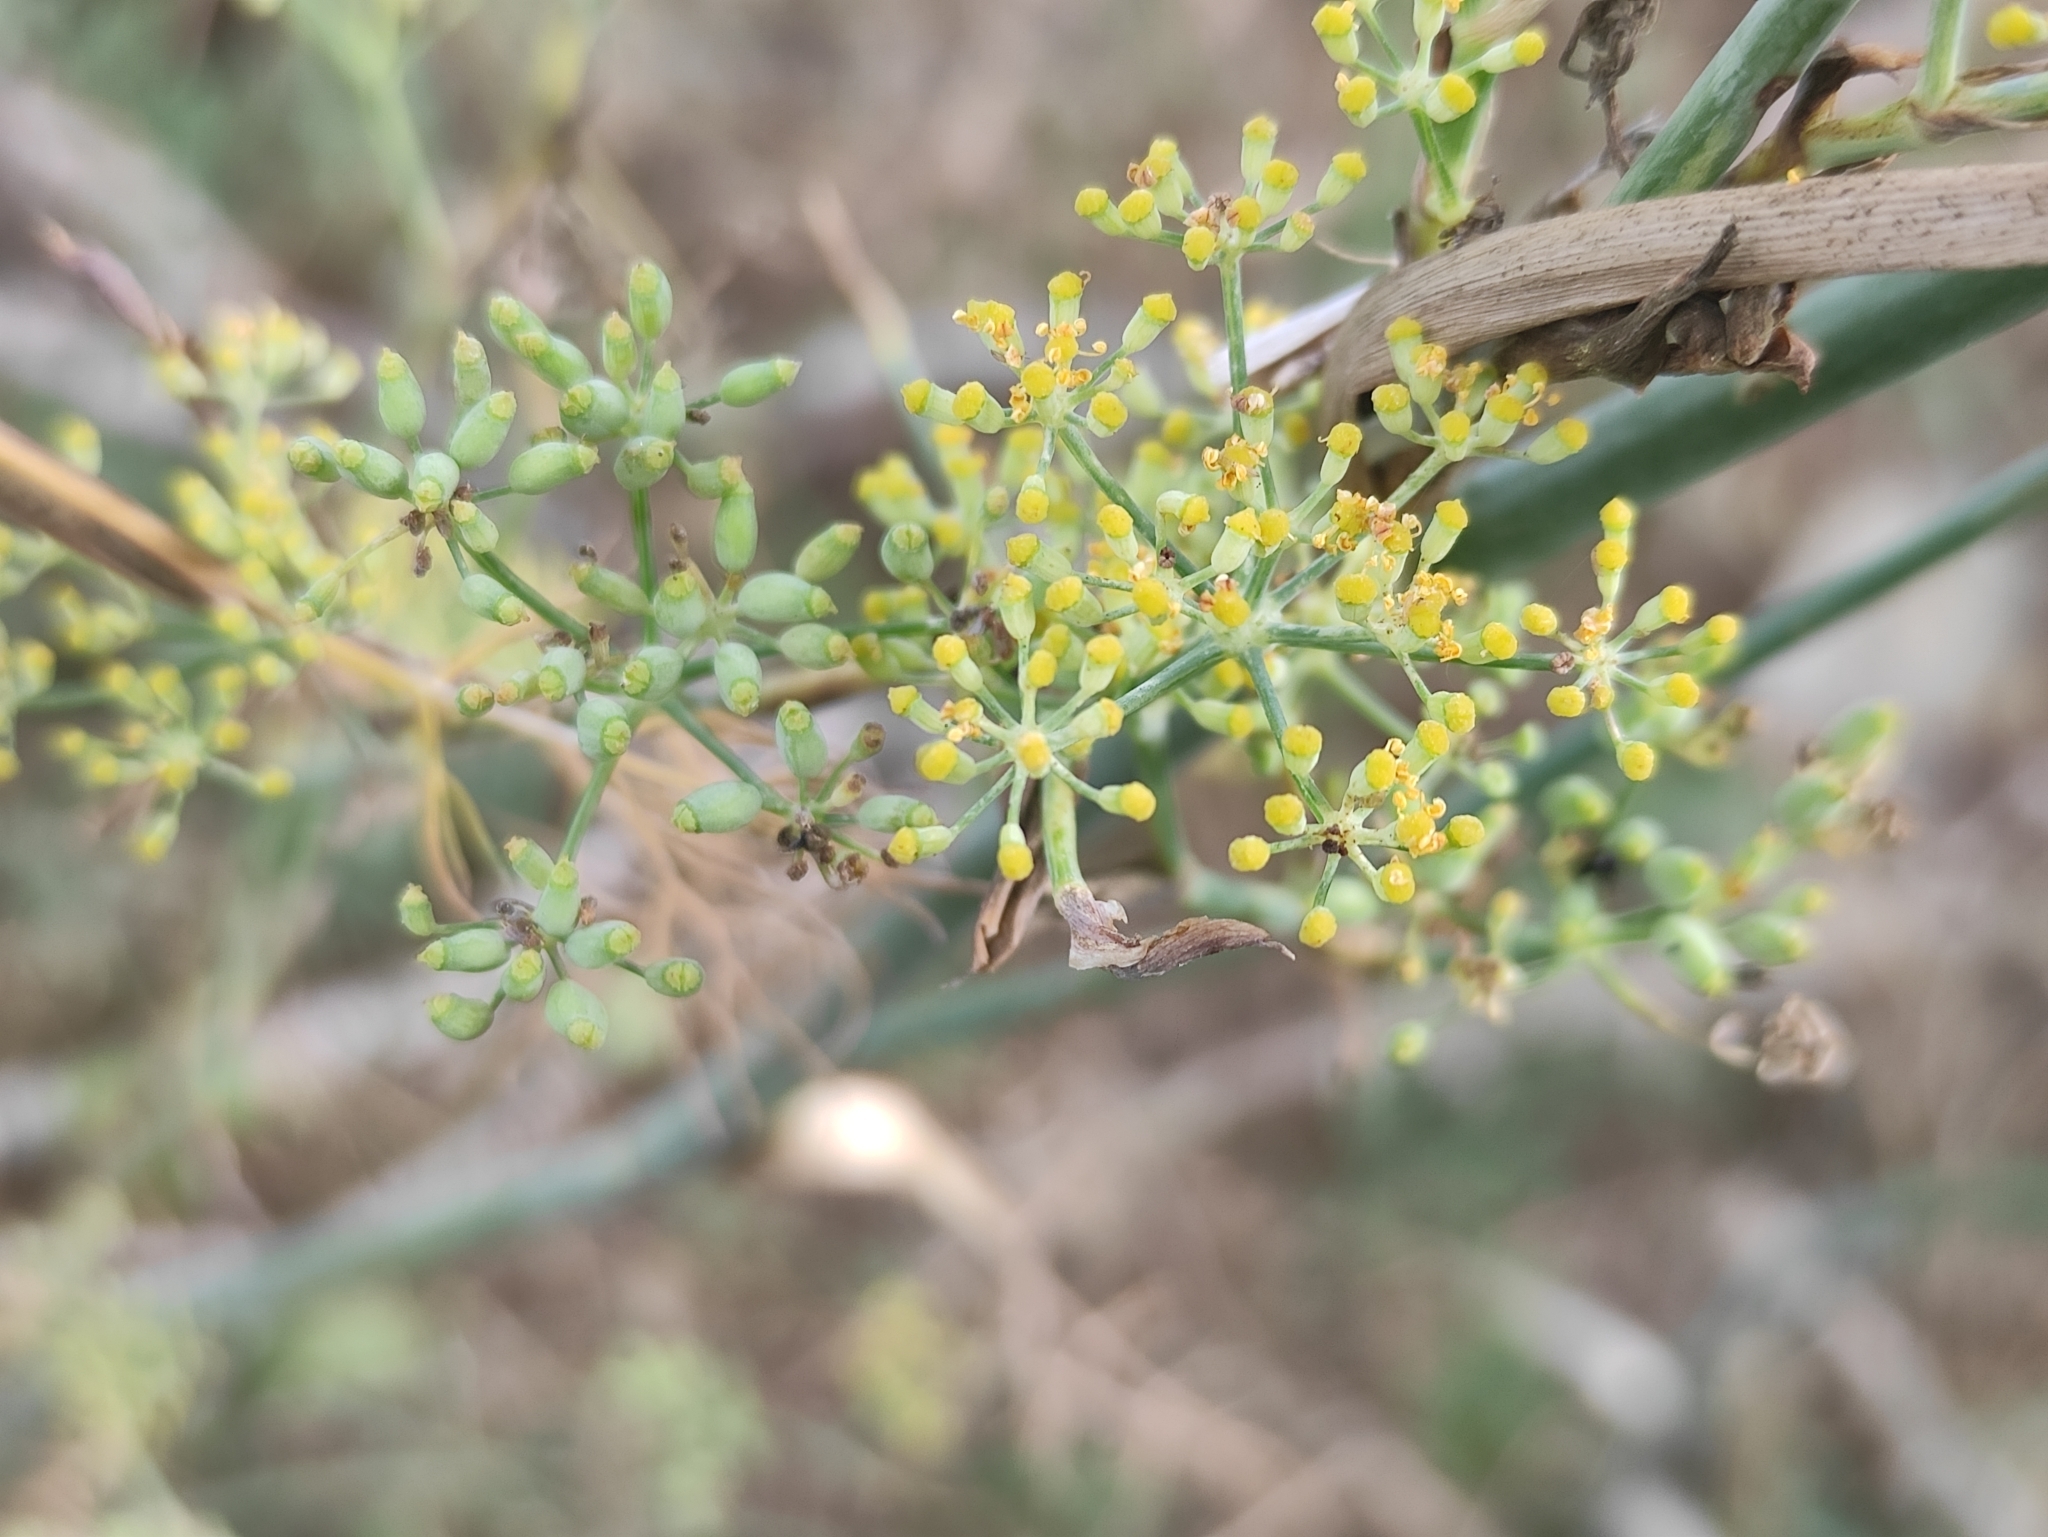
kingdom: Plantae
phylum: Tracheophyta
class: Magnoliopsida
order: Apiales
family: Apiaceae
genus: Foeniculum
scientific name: Foeniculum vulgare
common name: Fennel
